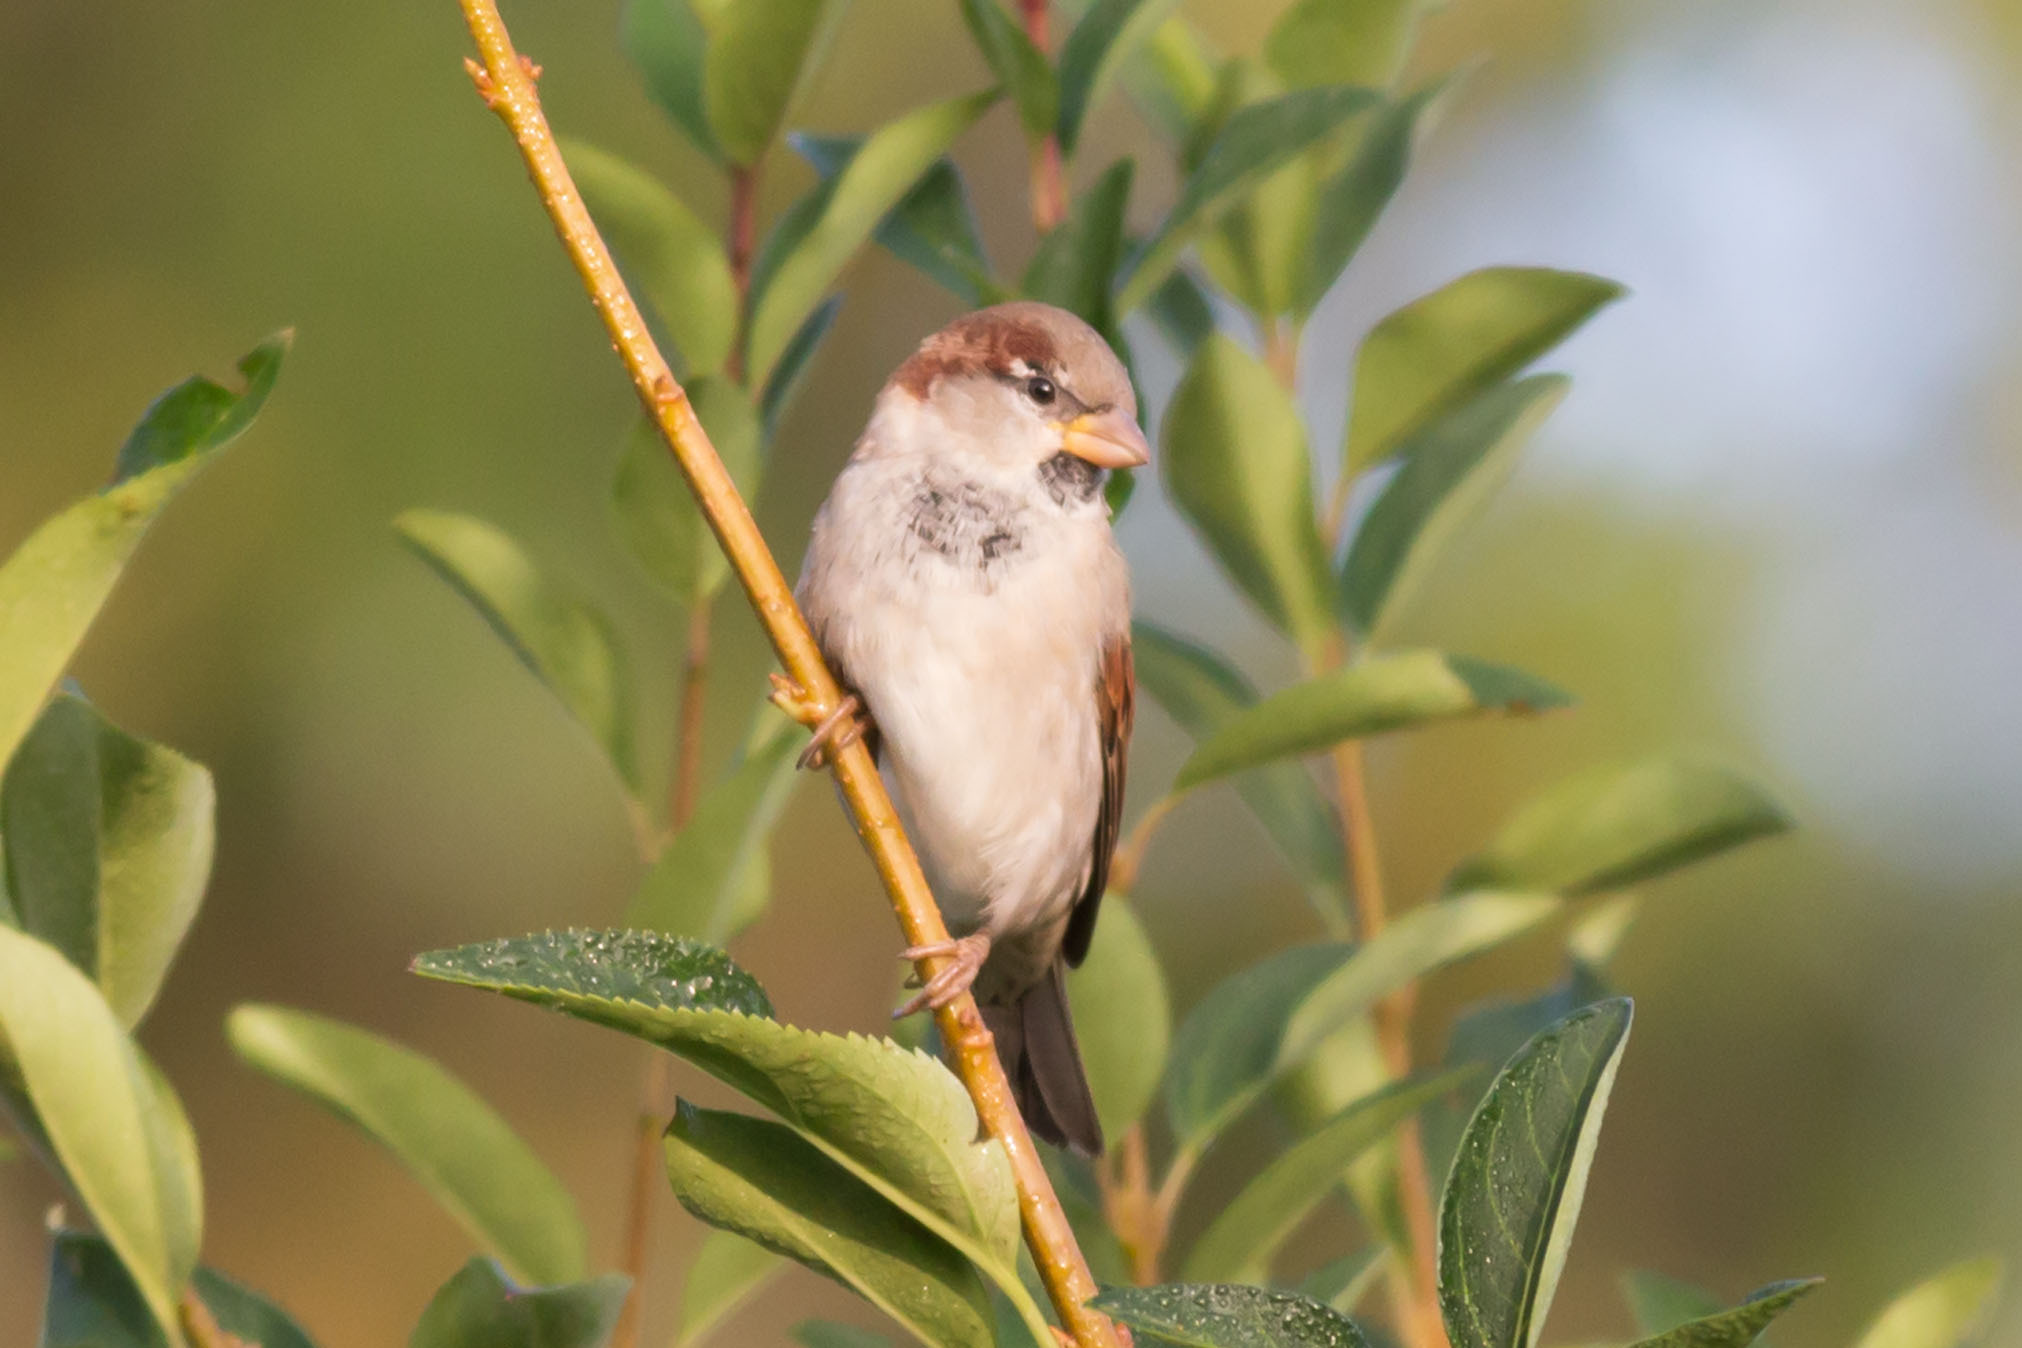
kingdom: Animalia
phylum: Chordata
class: Aves
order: Passeriformes
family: Passeridae
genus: Passer
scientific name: Passer domesticus
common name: House sparrow
